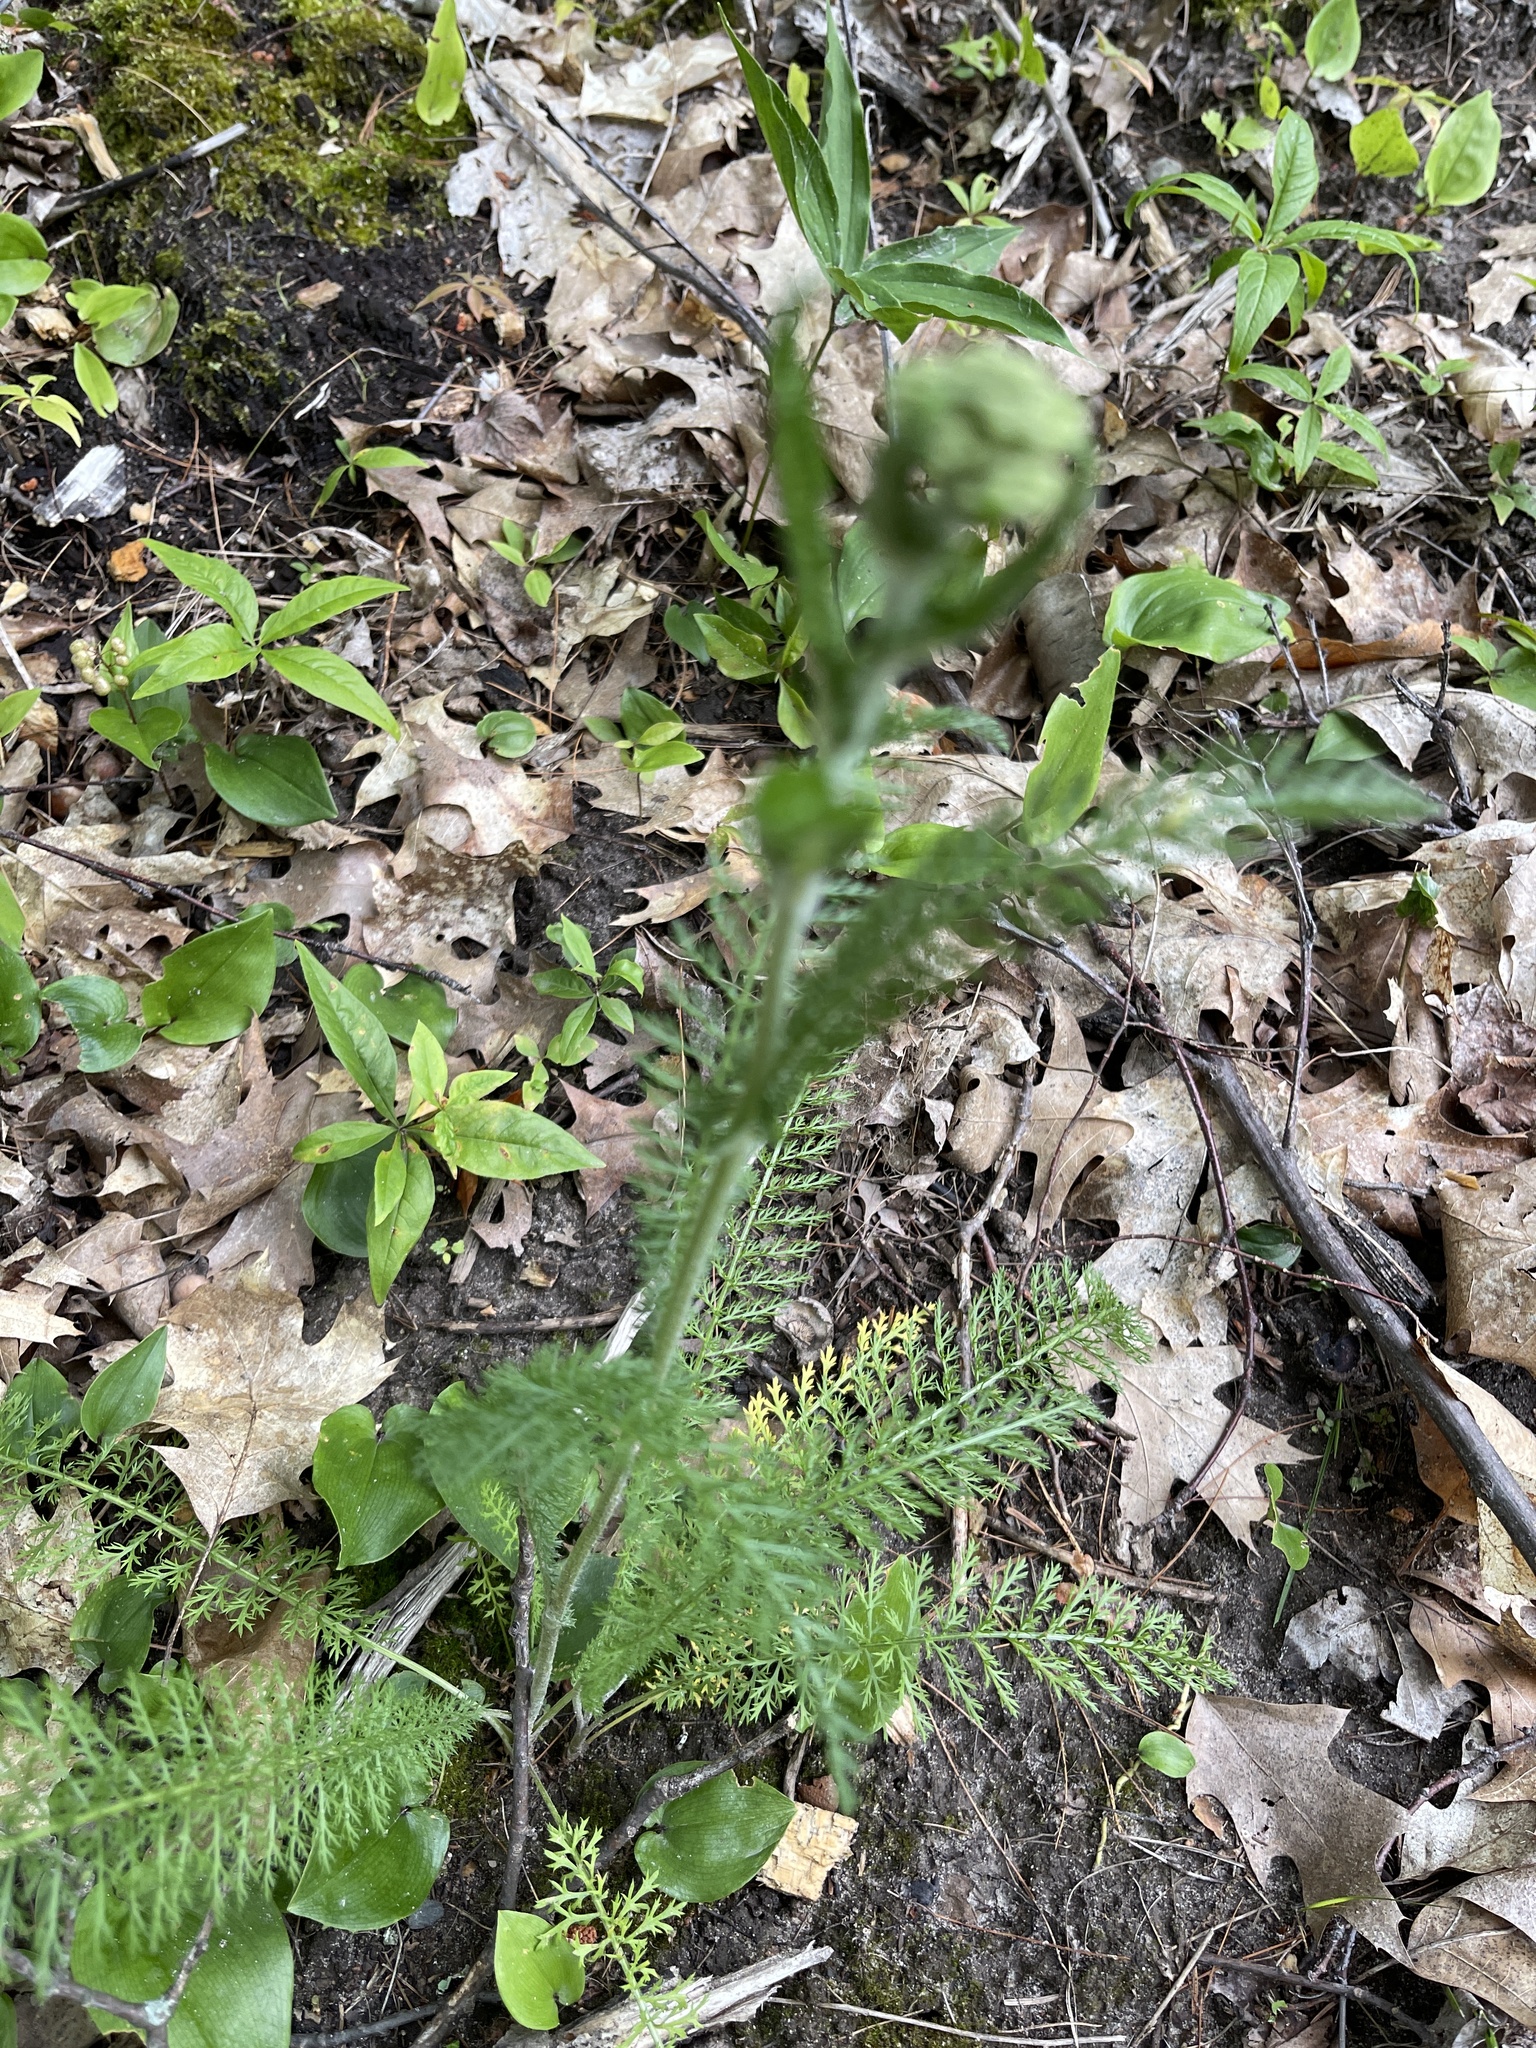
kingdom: Plantae
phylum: Tracheophyta
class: Magnoliopsida
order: Asterales
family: Asteraceae
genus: Achillea
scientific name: Achillea millefolium
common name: Yarrow
